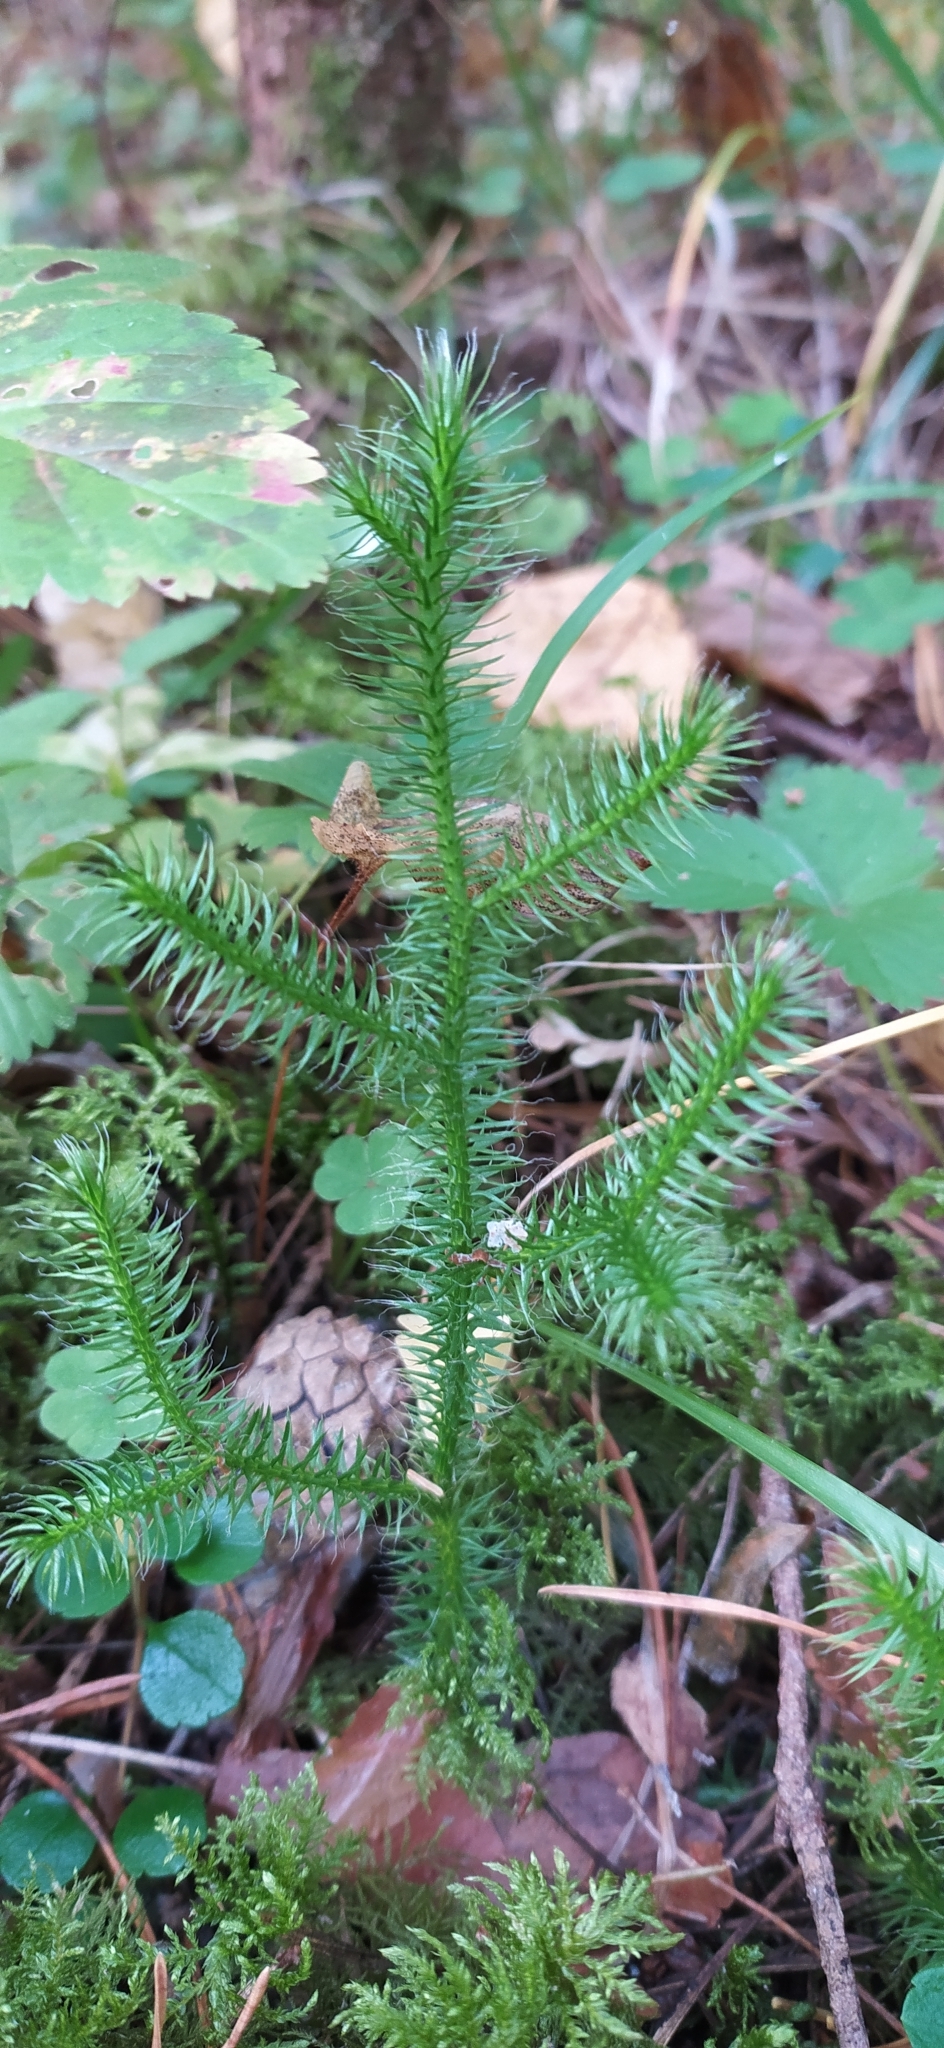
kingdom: Plantae
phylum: Tracheophyta
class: Lycopodiopsida
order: Lycopodiales
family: Lycopodiaceae
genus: Lycopodium
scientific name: Lycopodium clavatum
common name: Stag's-horn clubmoss
